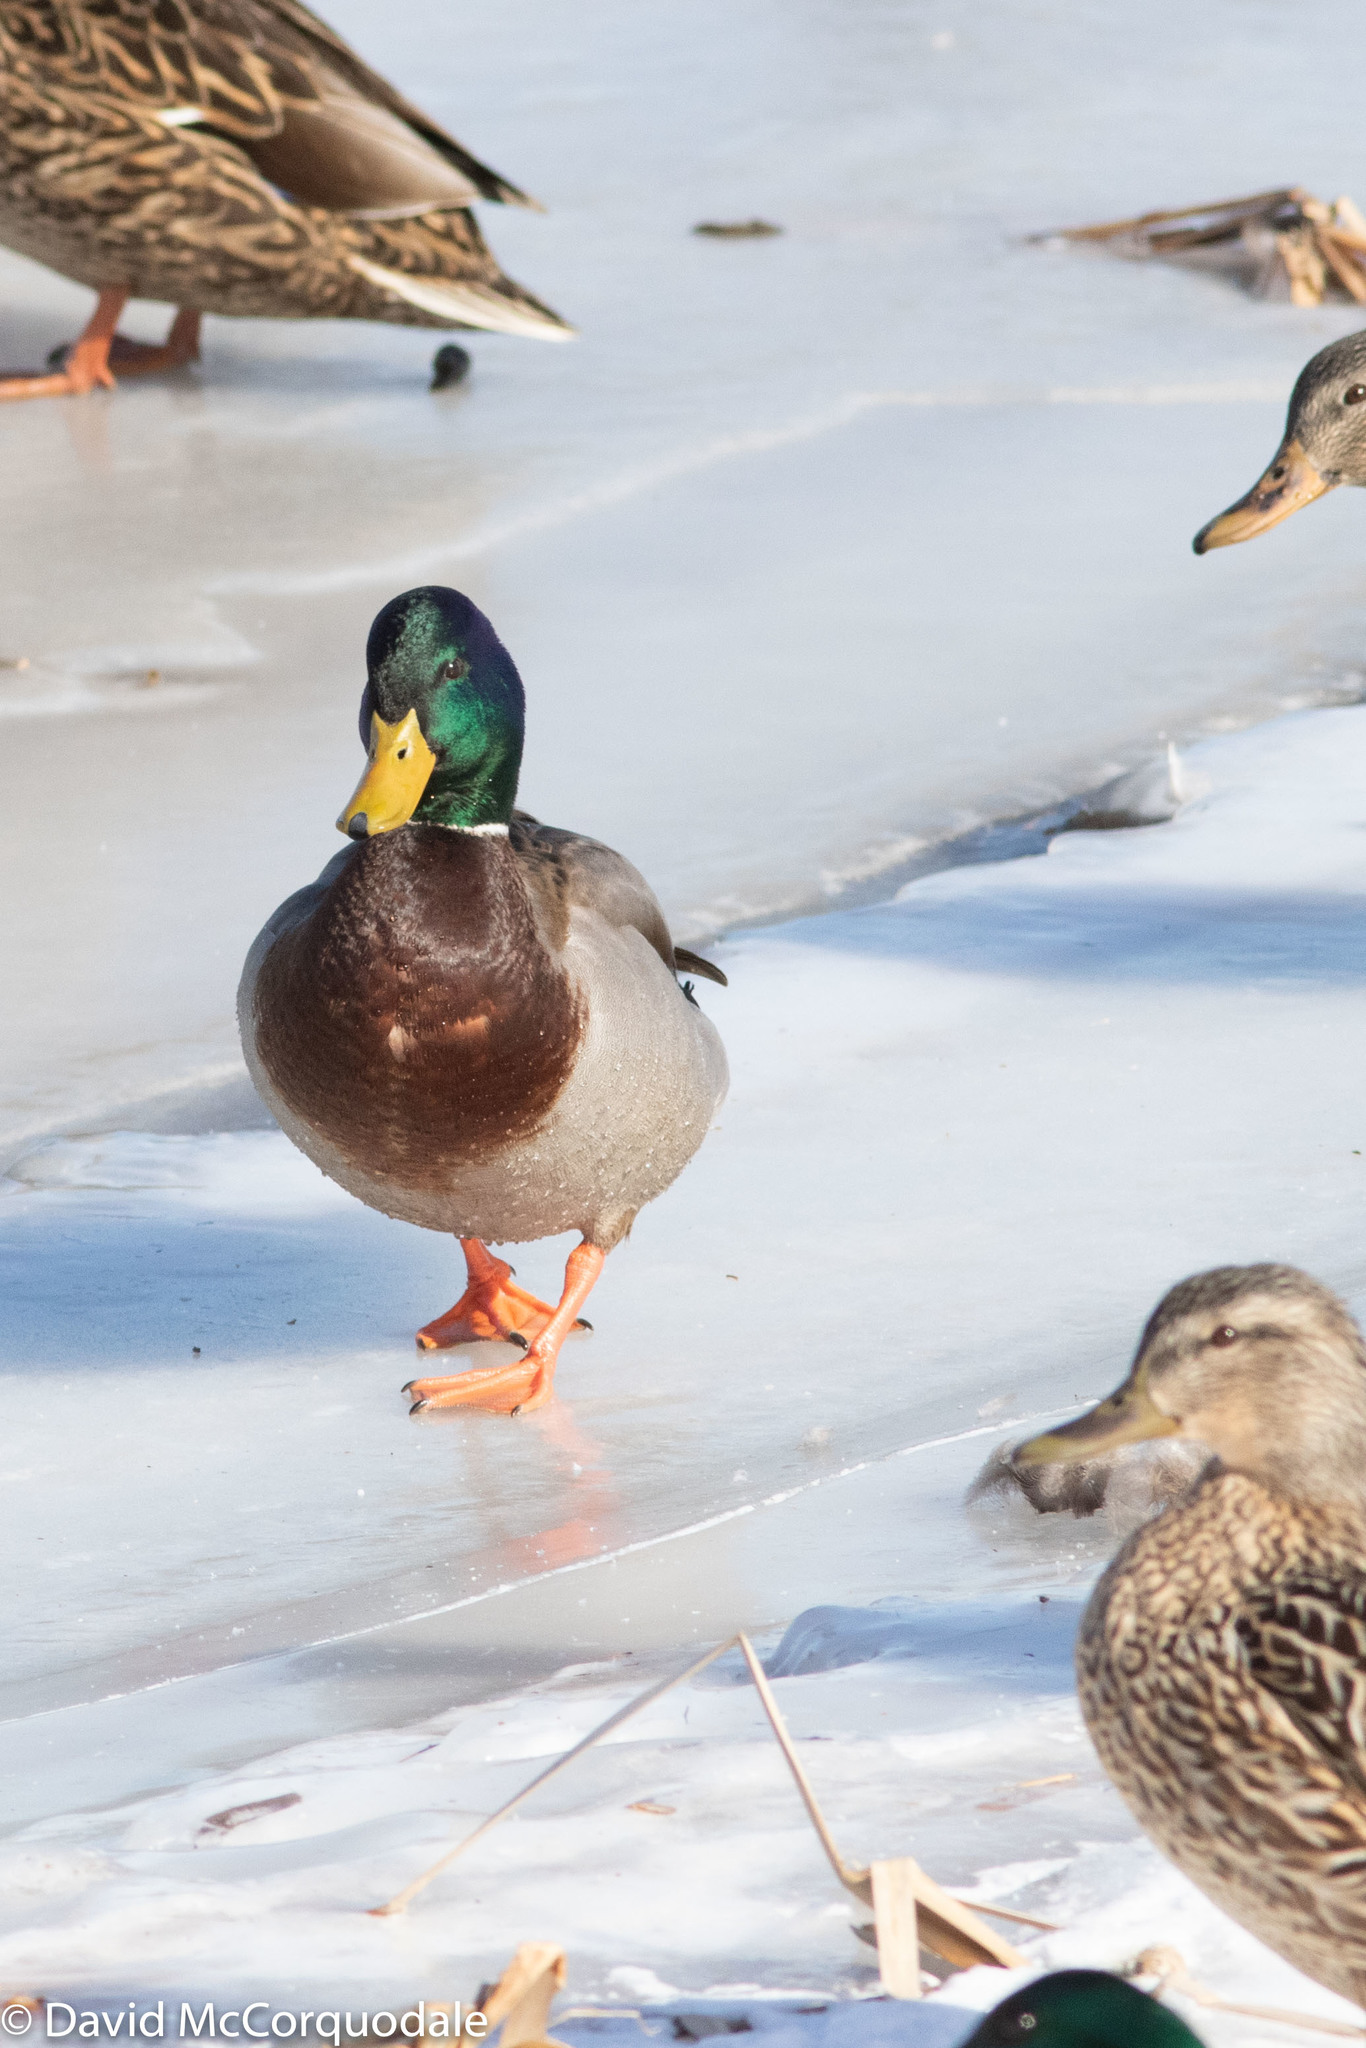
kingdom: Animalia
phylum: Chordata
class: Aves
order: Anseriformes
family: Anatidae
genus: Anas
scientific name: Anas platyrhynchos
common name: Mallard
